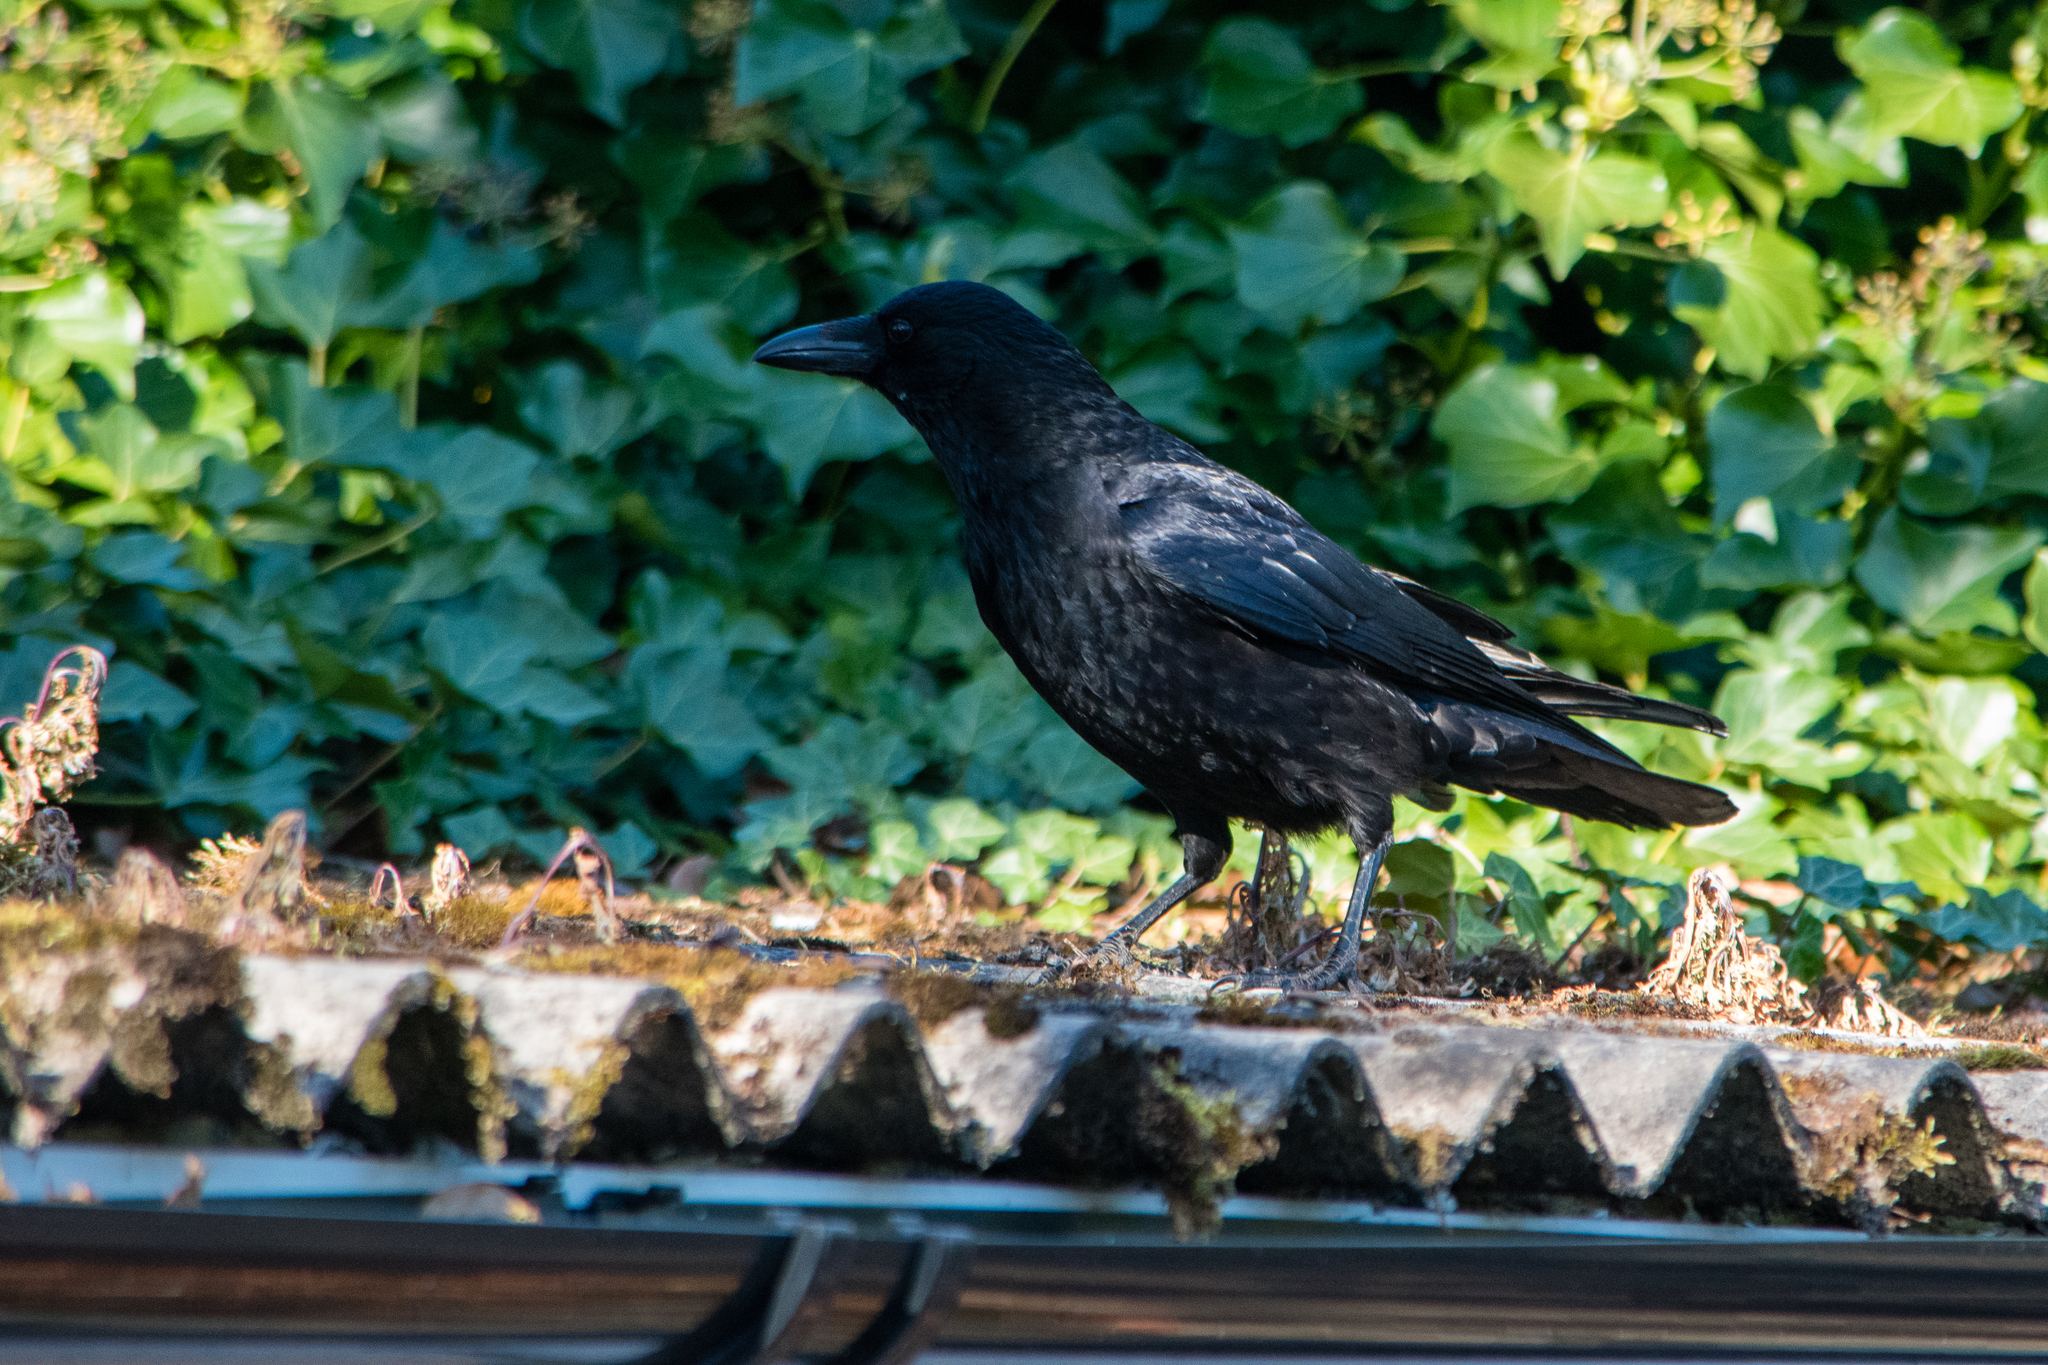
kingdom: Animalia
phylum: Chordata
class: Aves
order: Passeriformes
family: Corvidae
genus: Corvus
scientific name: Corvus corone
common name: Carrion crow
